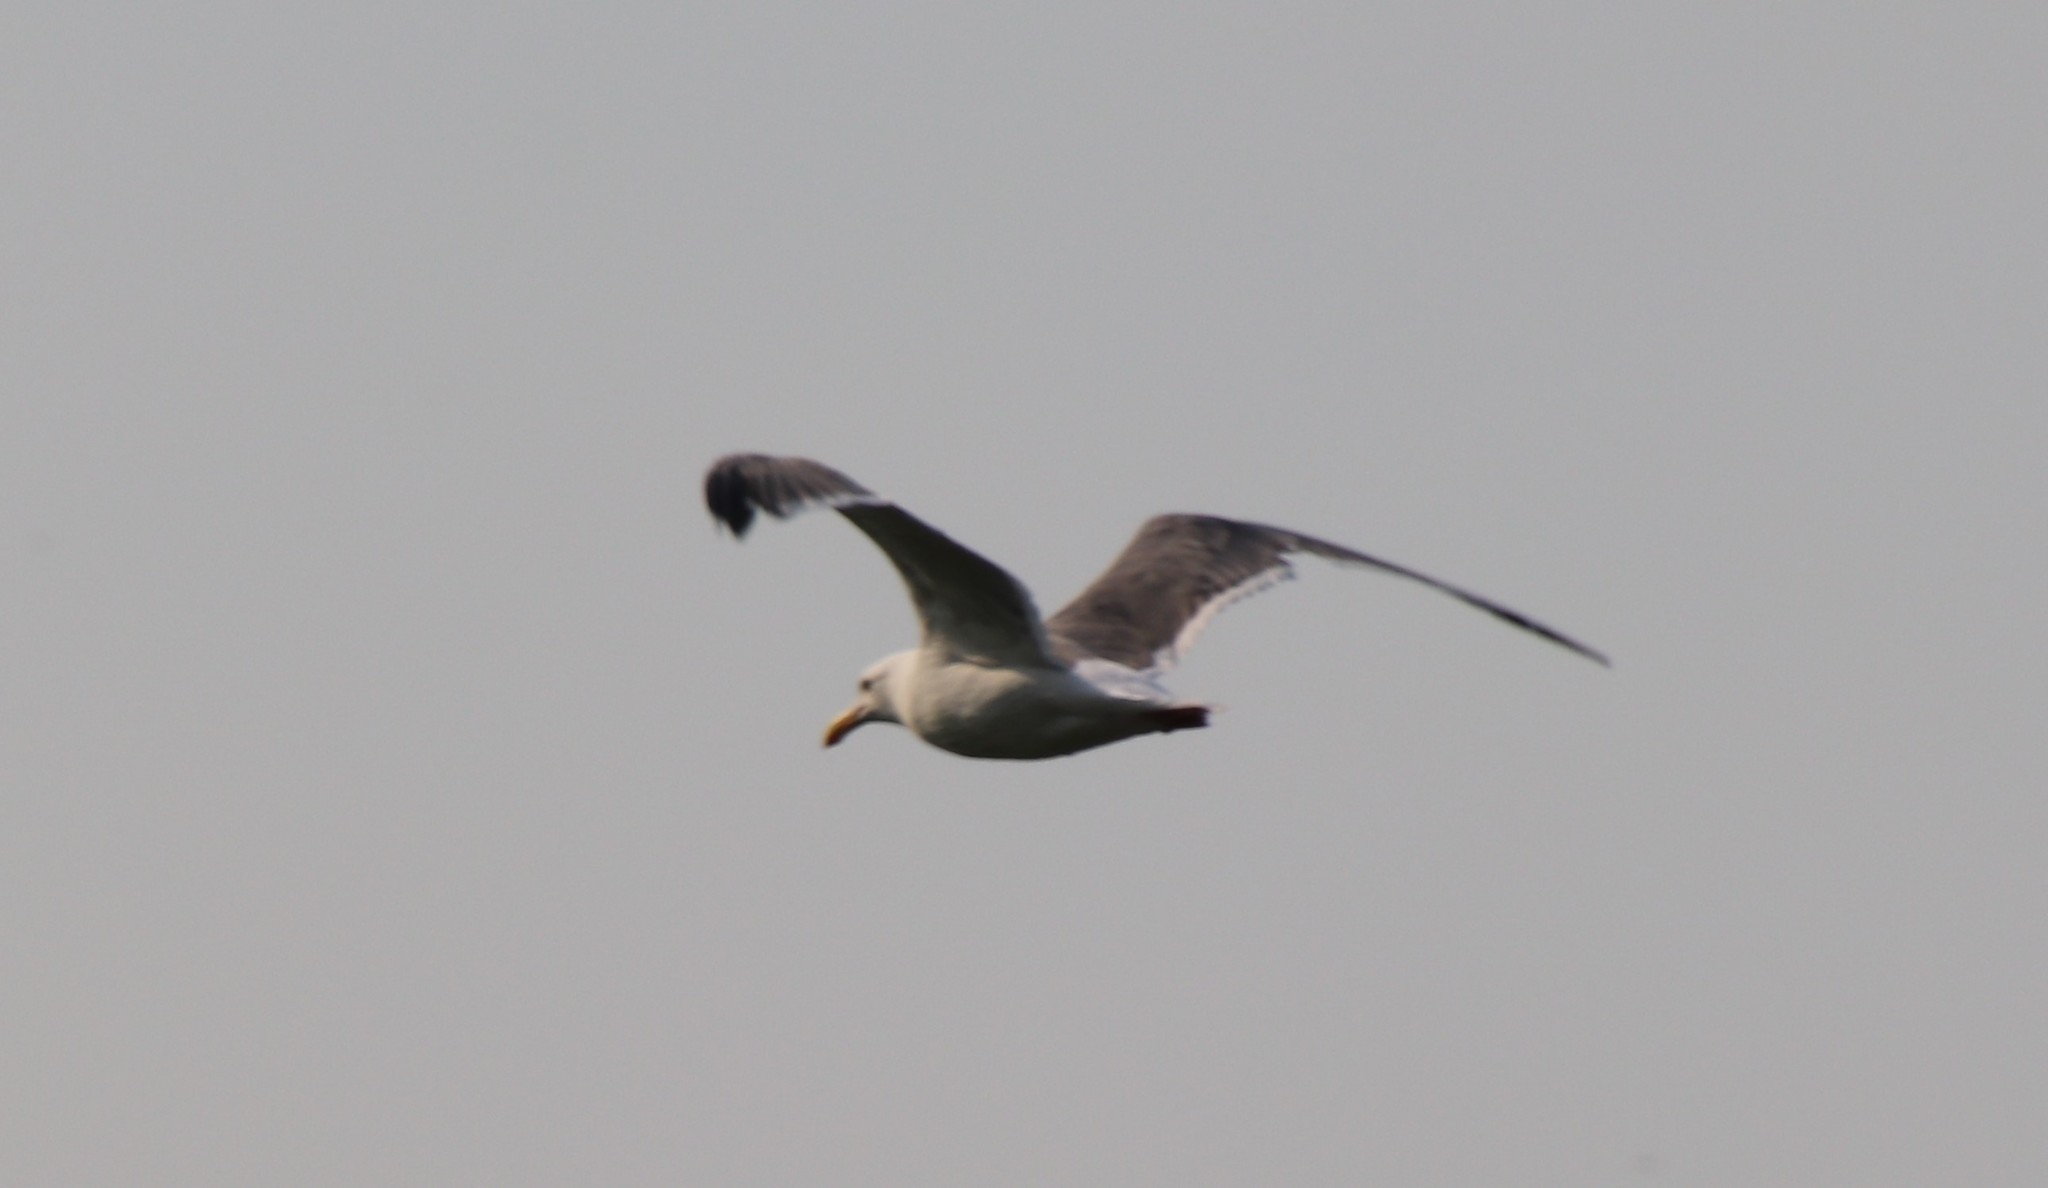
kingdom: Animalia
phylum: Chordata
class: Aves
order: Charadriiformes
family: Laridae
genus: Larus
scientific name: Larus occidentalis
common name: Western gull
